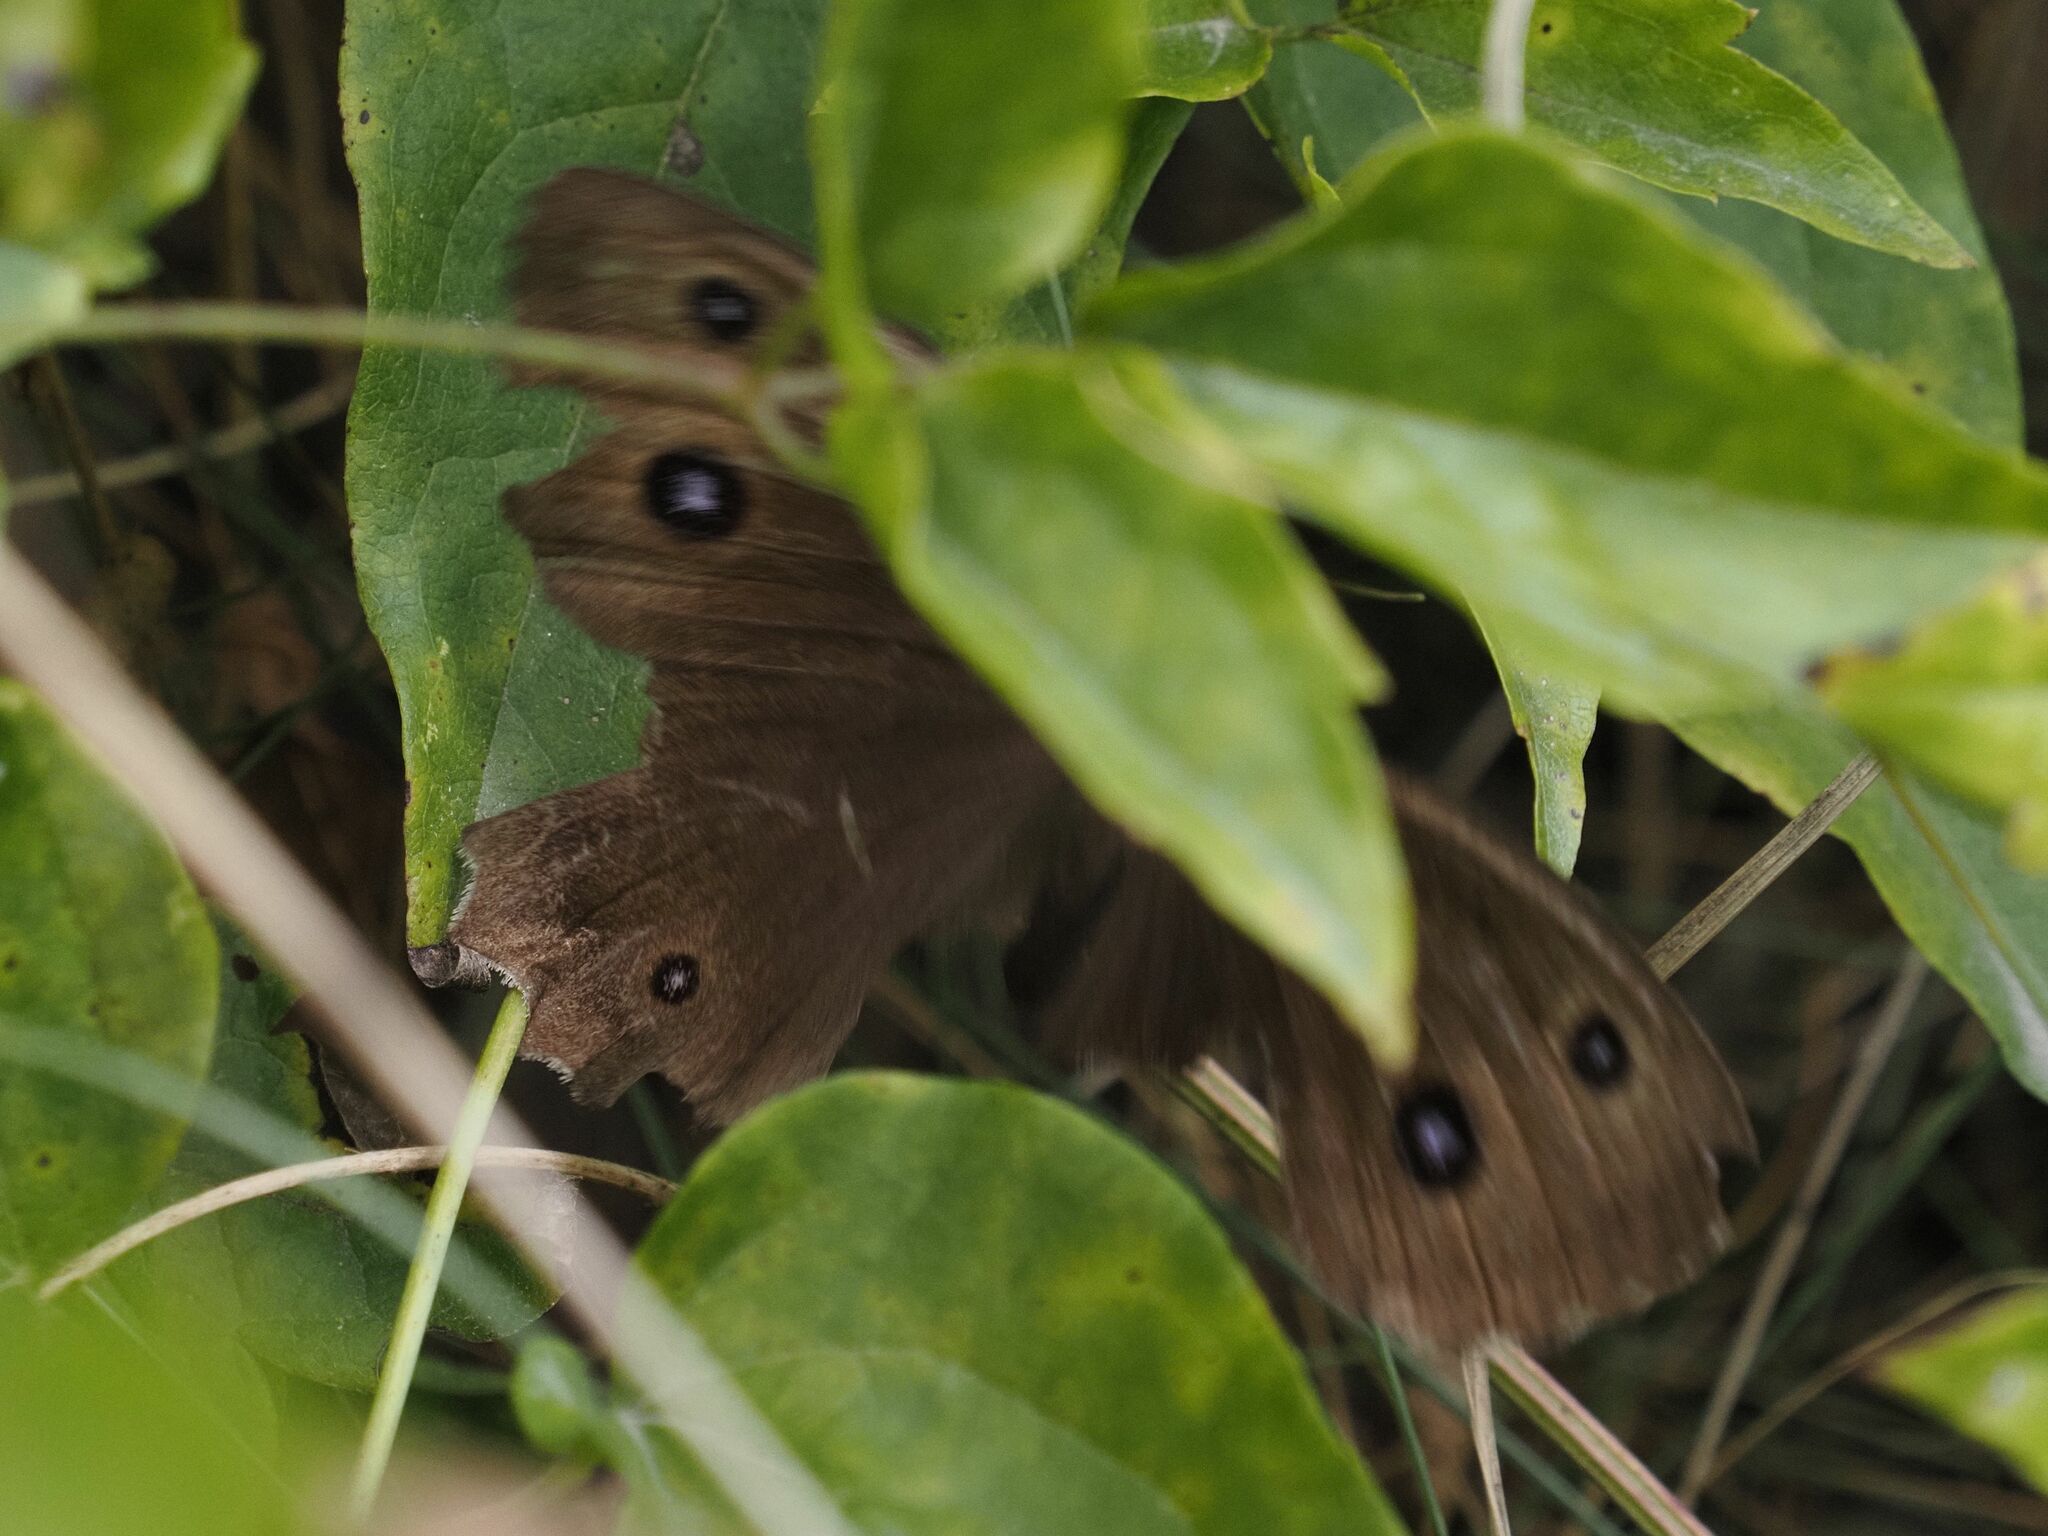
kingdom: Animalia
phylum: Arthropoda
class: Insecta
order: Lepidoptera
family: Nymphalidae
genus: Minois
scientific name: Minois dryas
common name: Dryad
